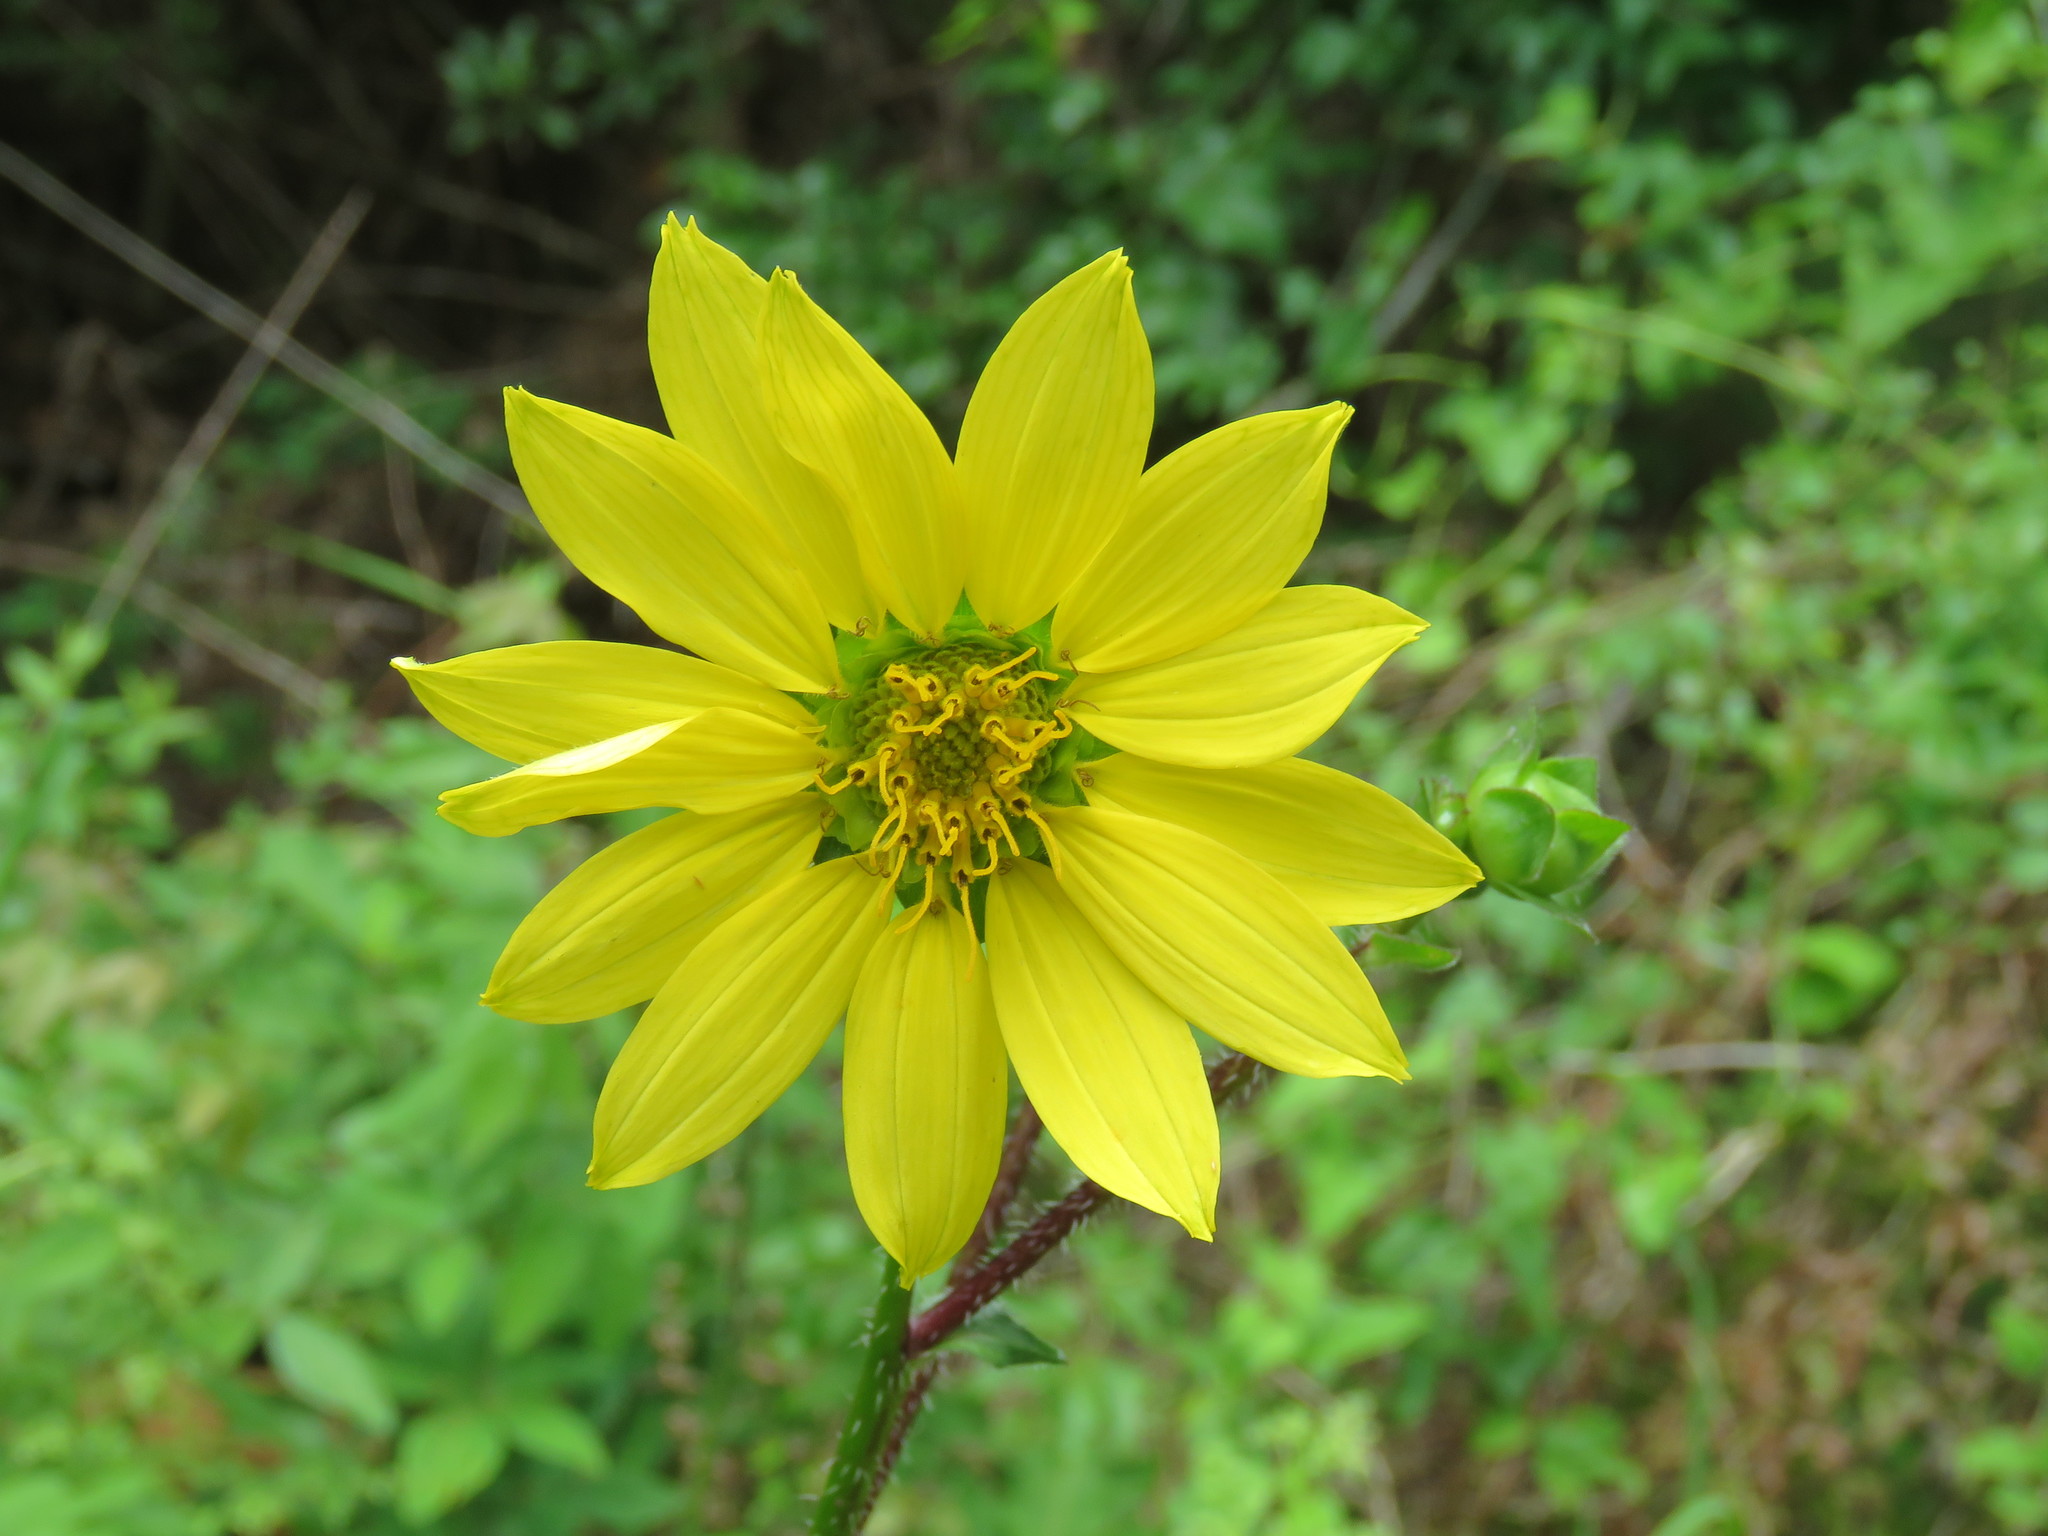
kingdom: Plantae
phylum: Tracheophyta
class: Magnoliopsida
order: Asterales
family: Asteraceae
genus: Silphium
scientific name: Silphium radula
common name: Roughleaf rosinweed
